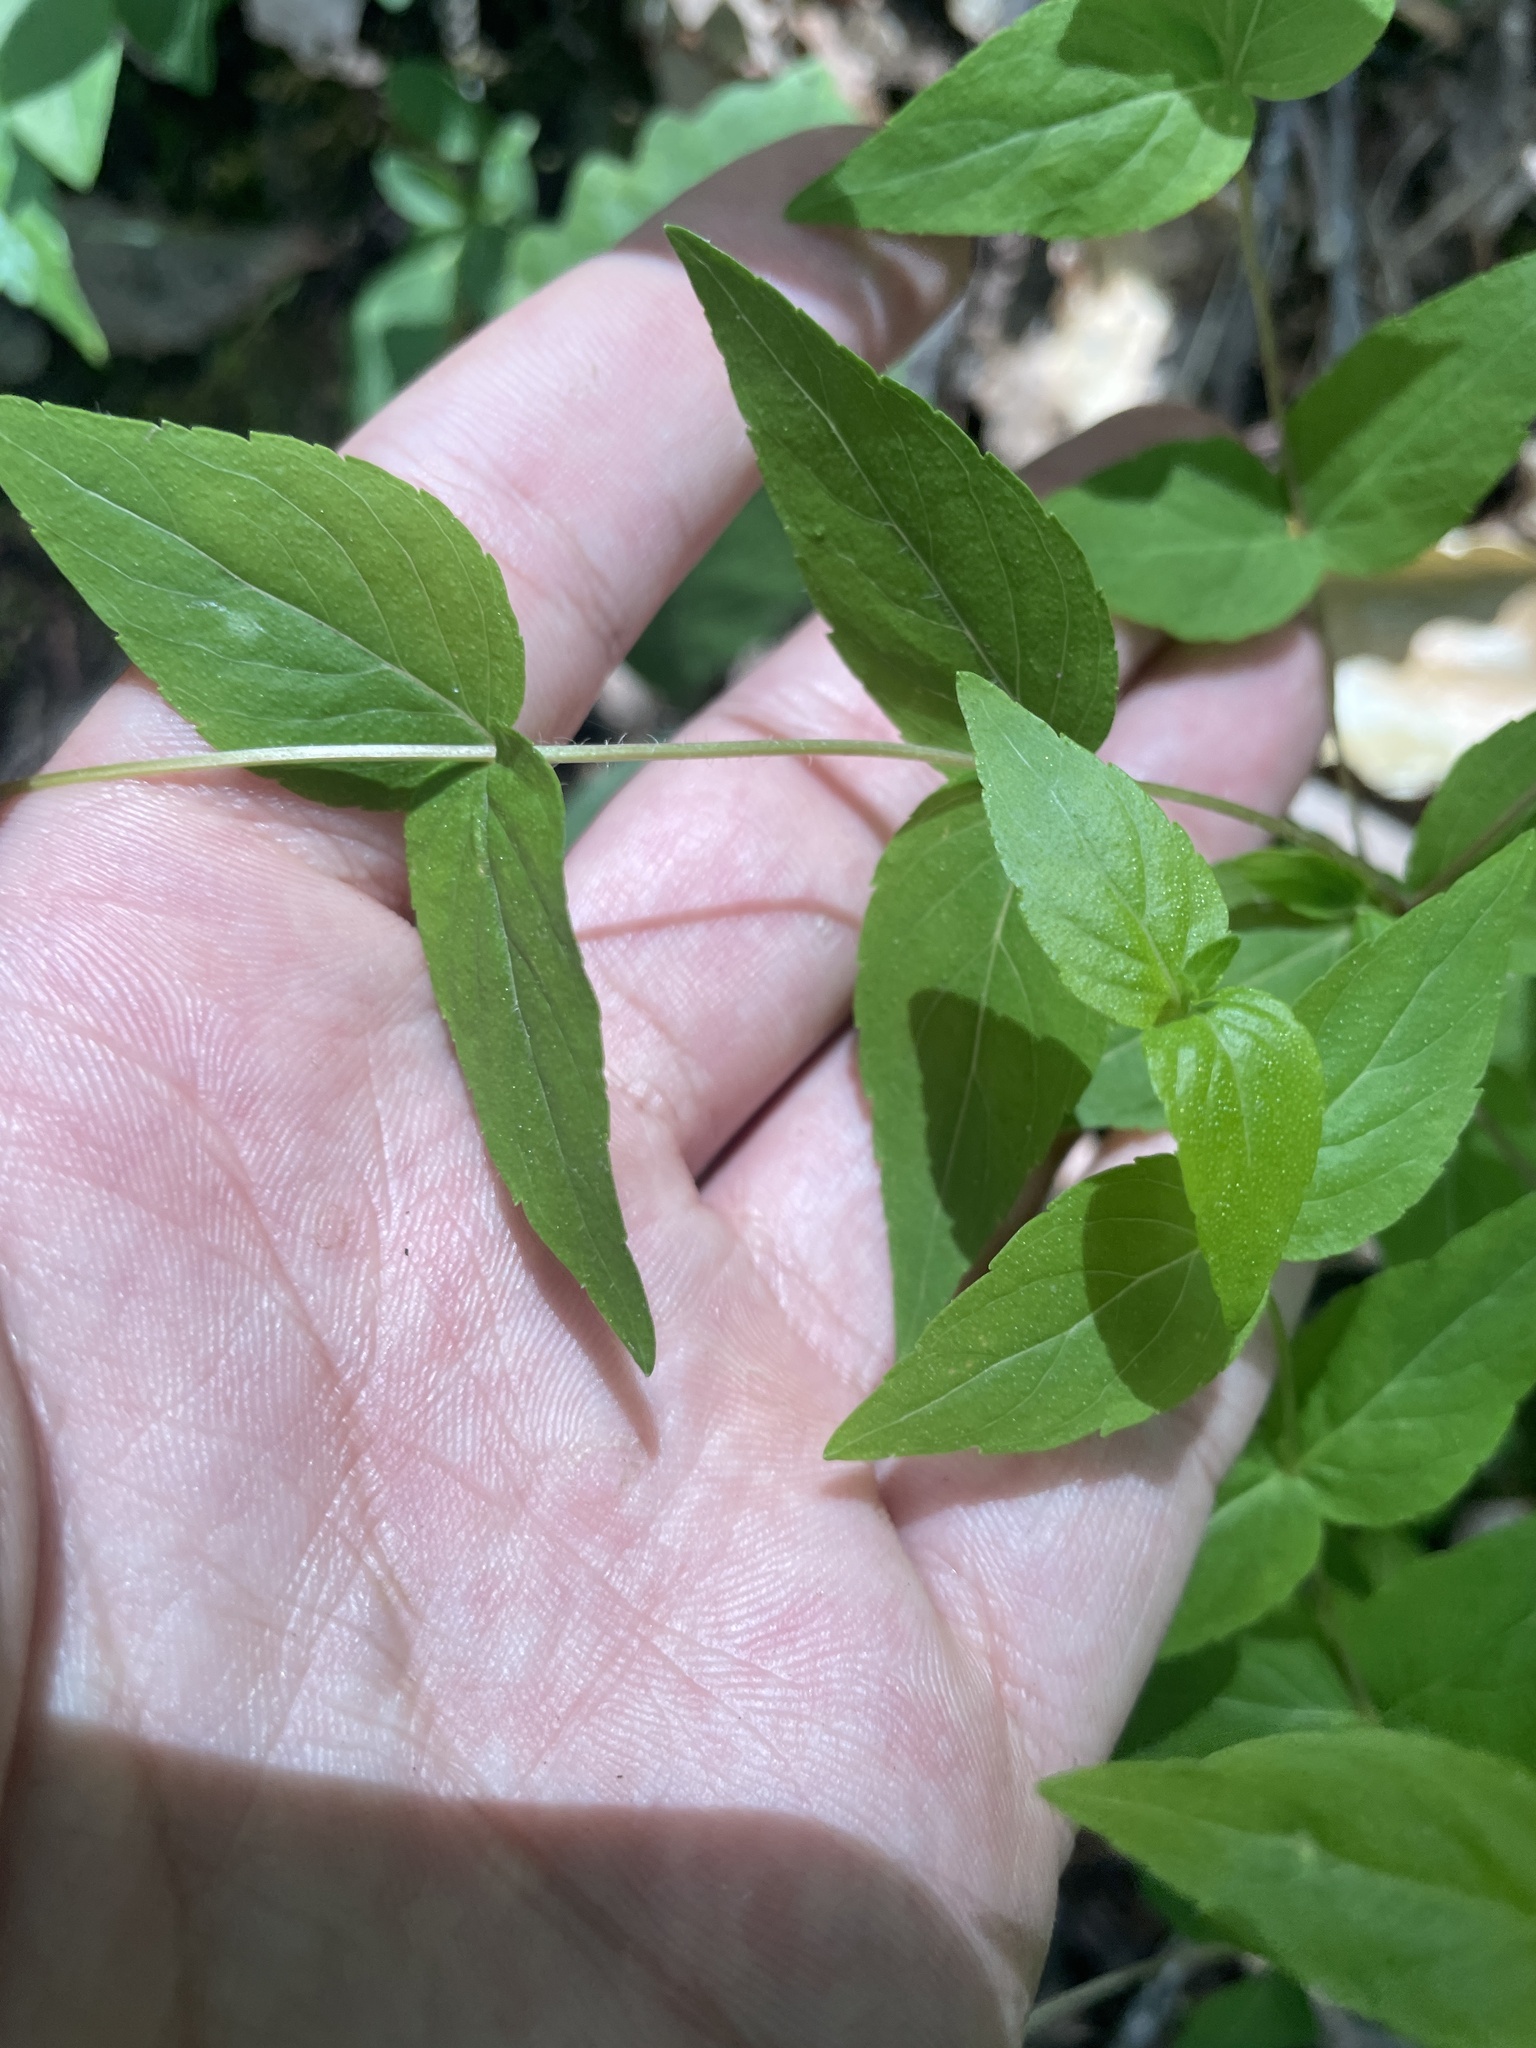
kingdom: Plantae
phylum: Tracheophyta
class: Magnoliopsida
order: Lamiales
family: Lamiaceae
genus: Cunila
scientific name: Cunila origanoides
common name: American dittany
